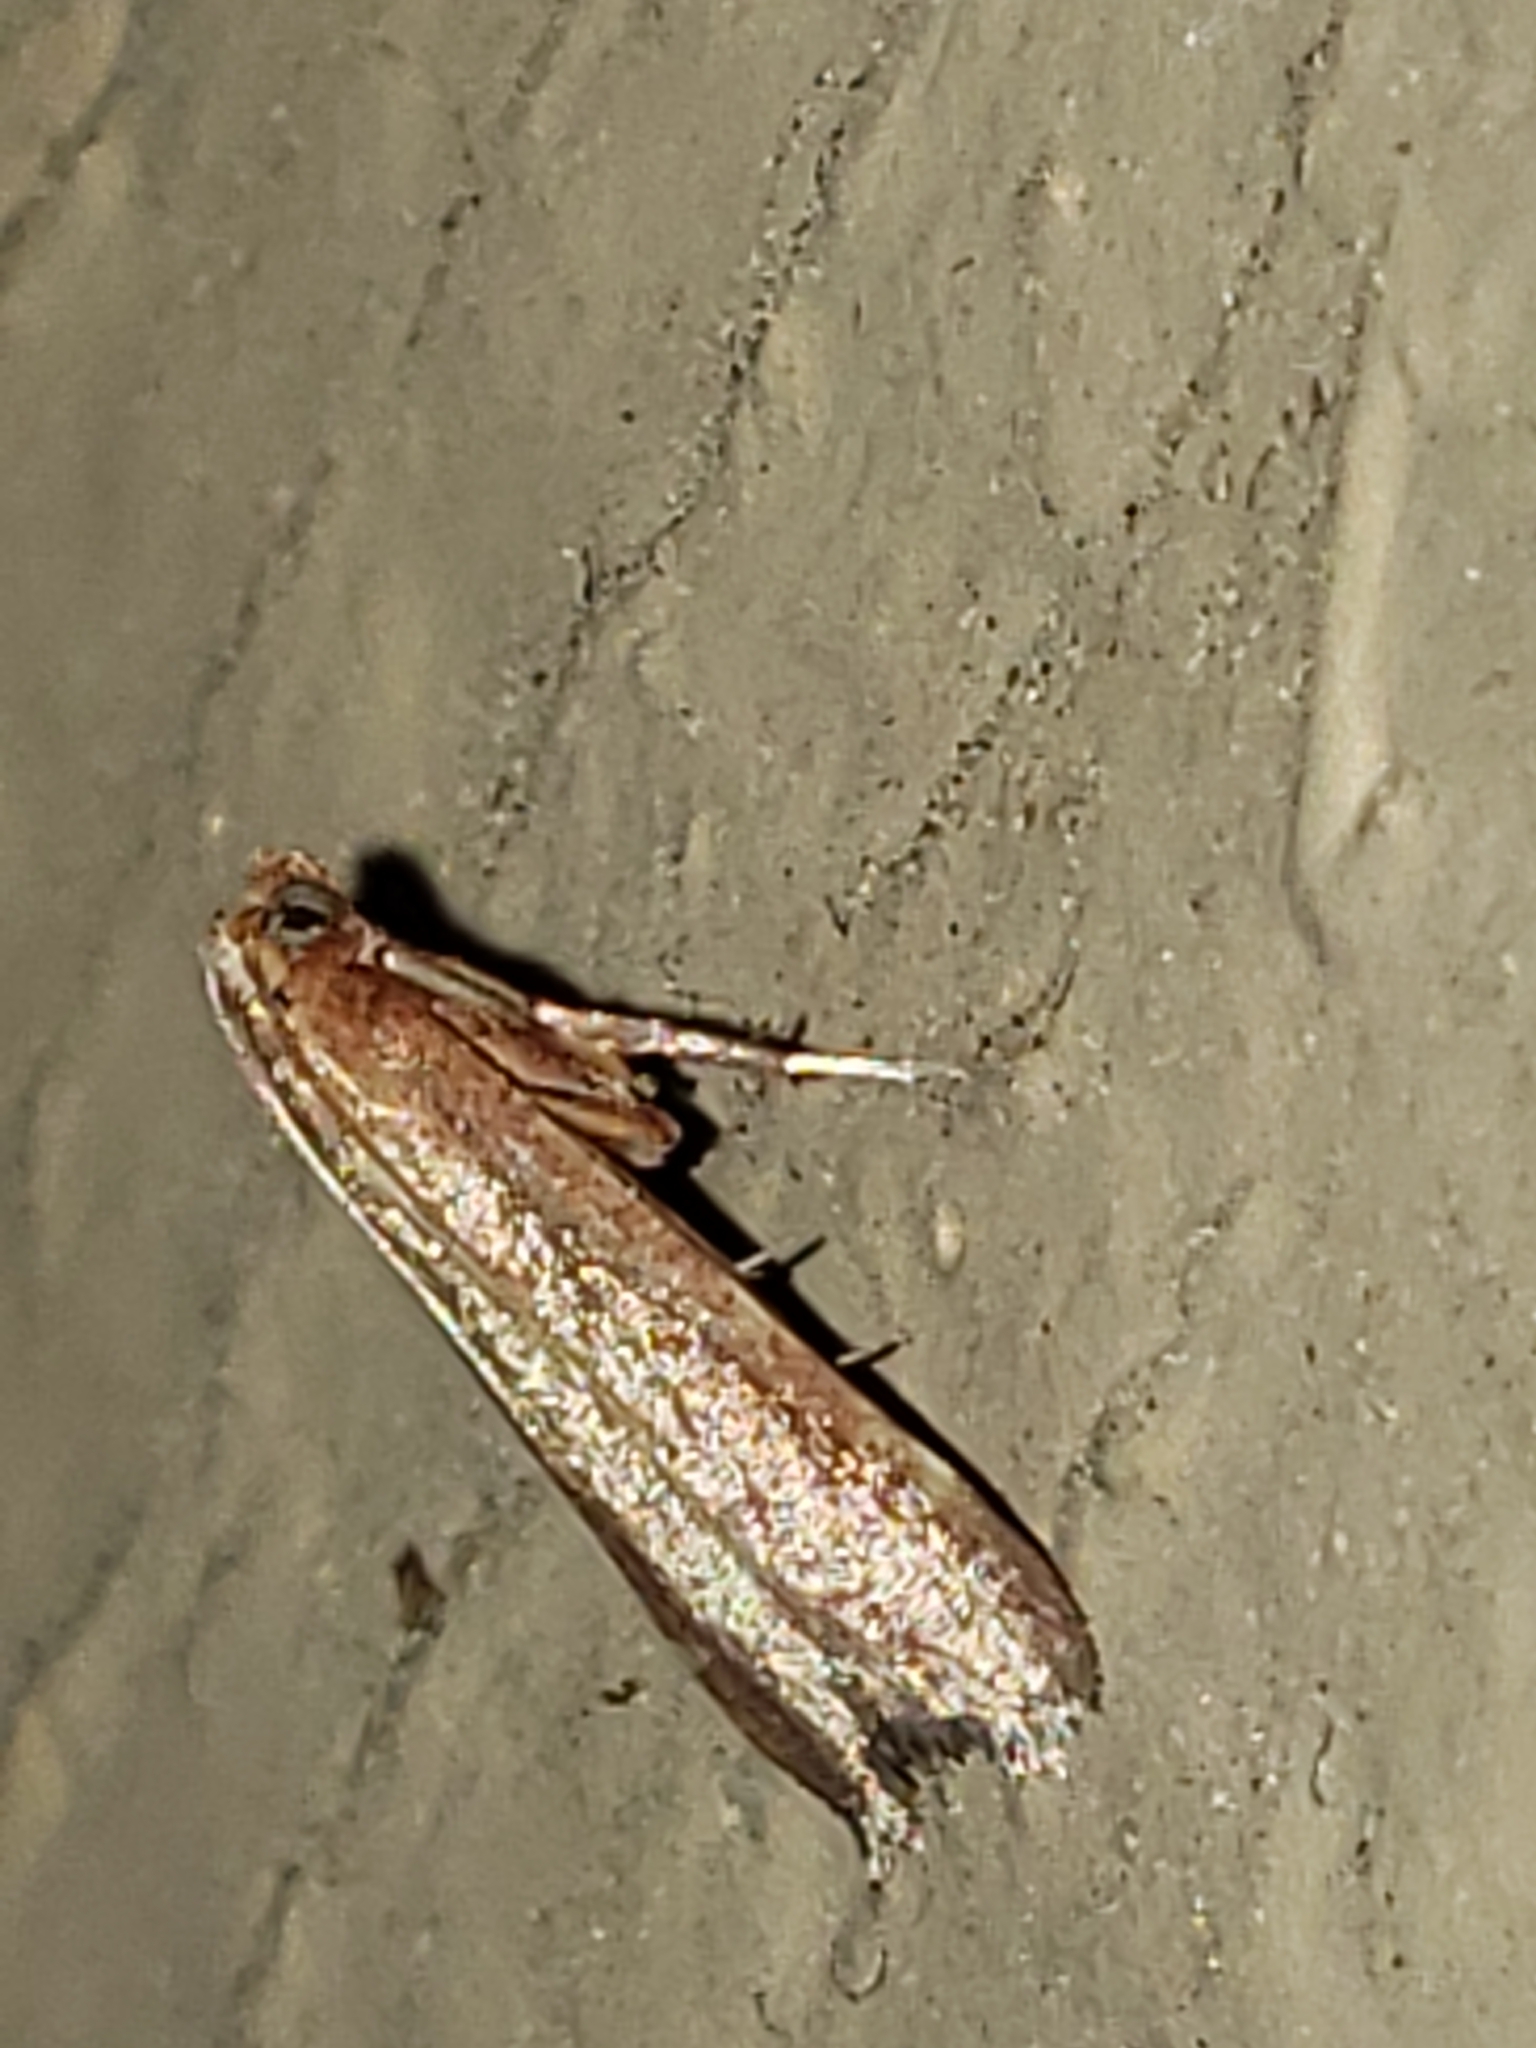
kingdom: Animalia
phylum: Arthropoda
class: Insecta
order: Lepidoptera
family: Pyralidae
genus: Arta
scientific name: Arta statalis
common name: Posturing arta moth
